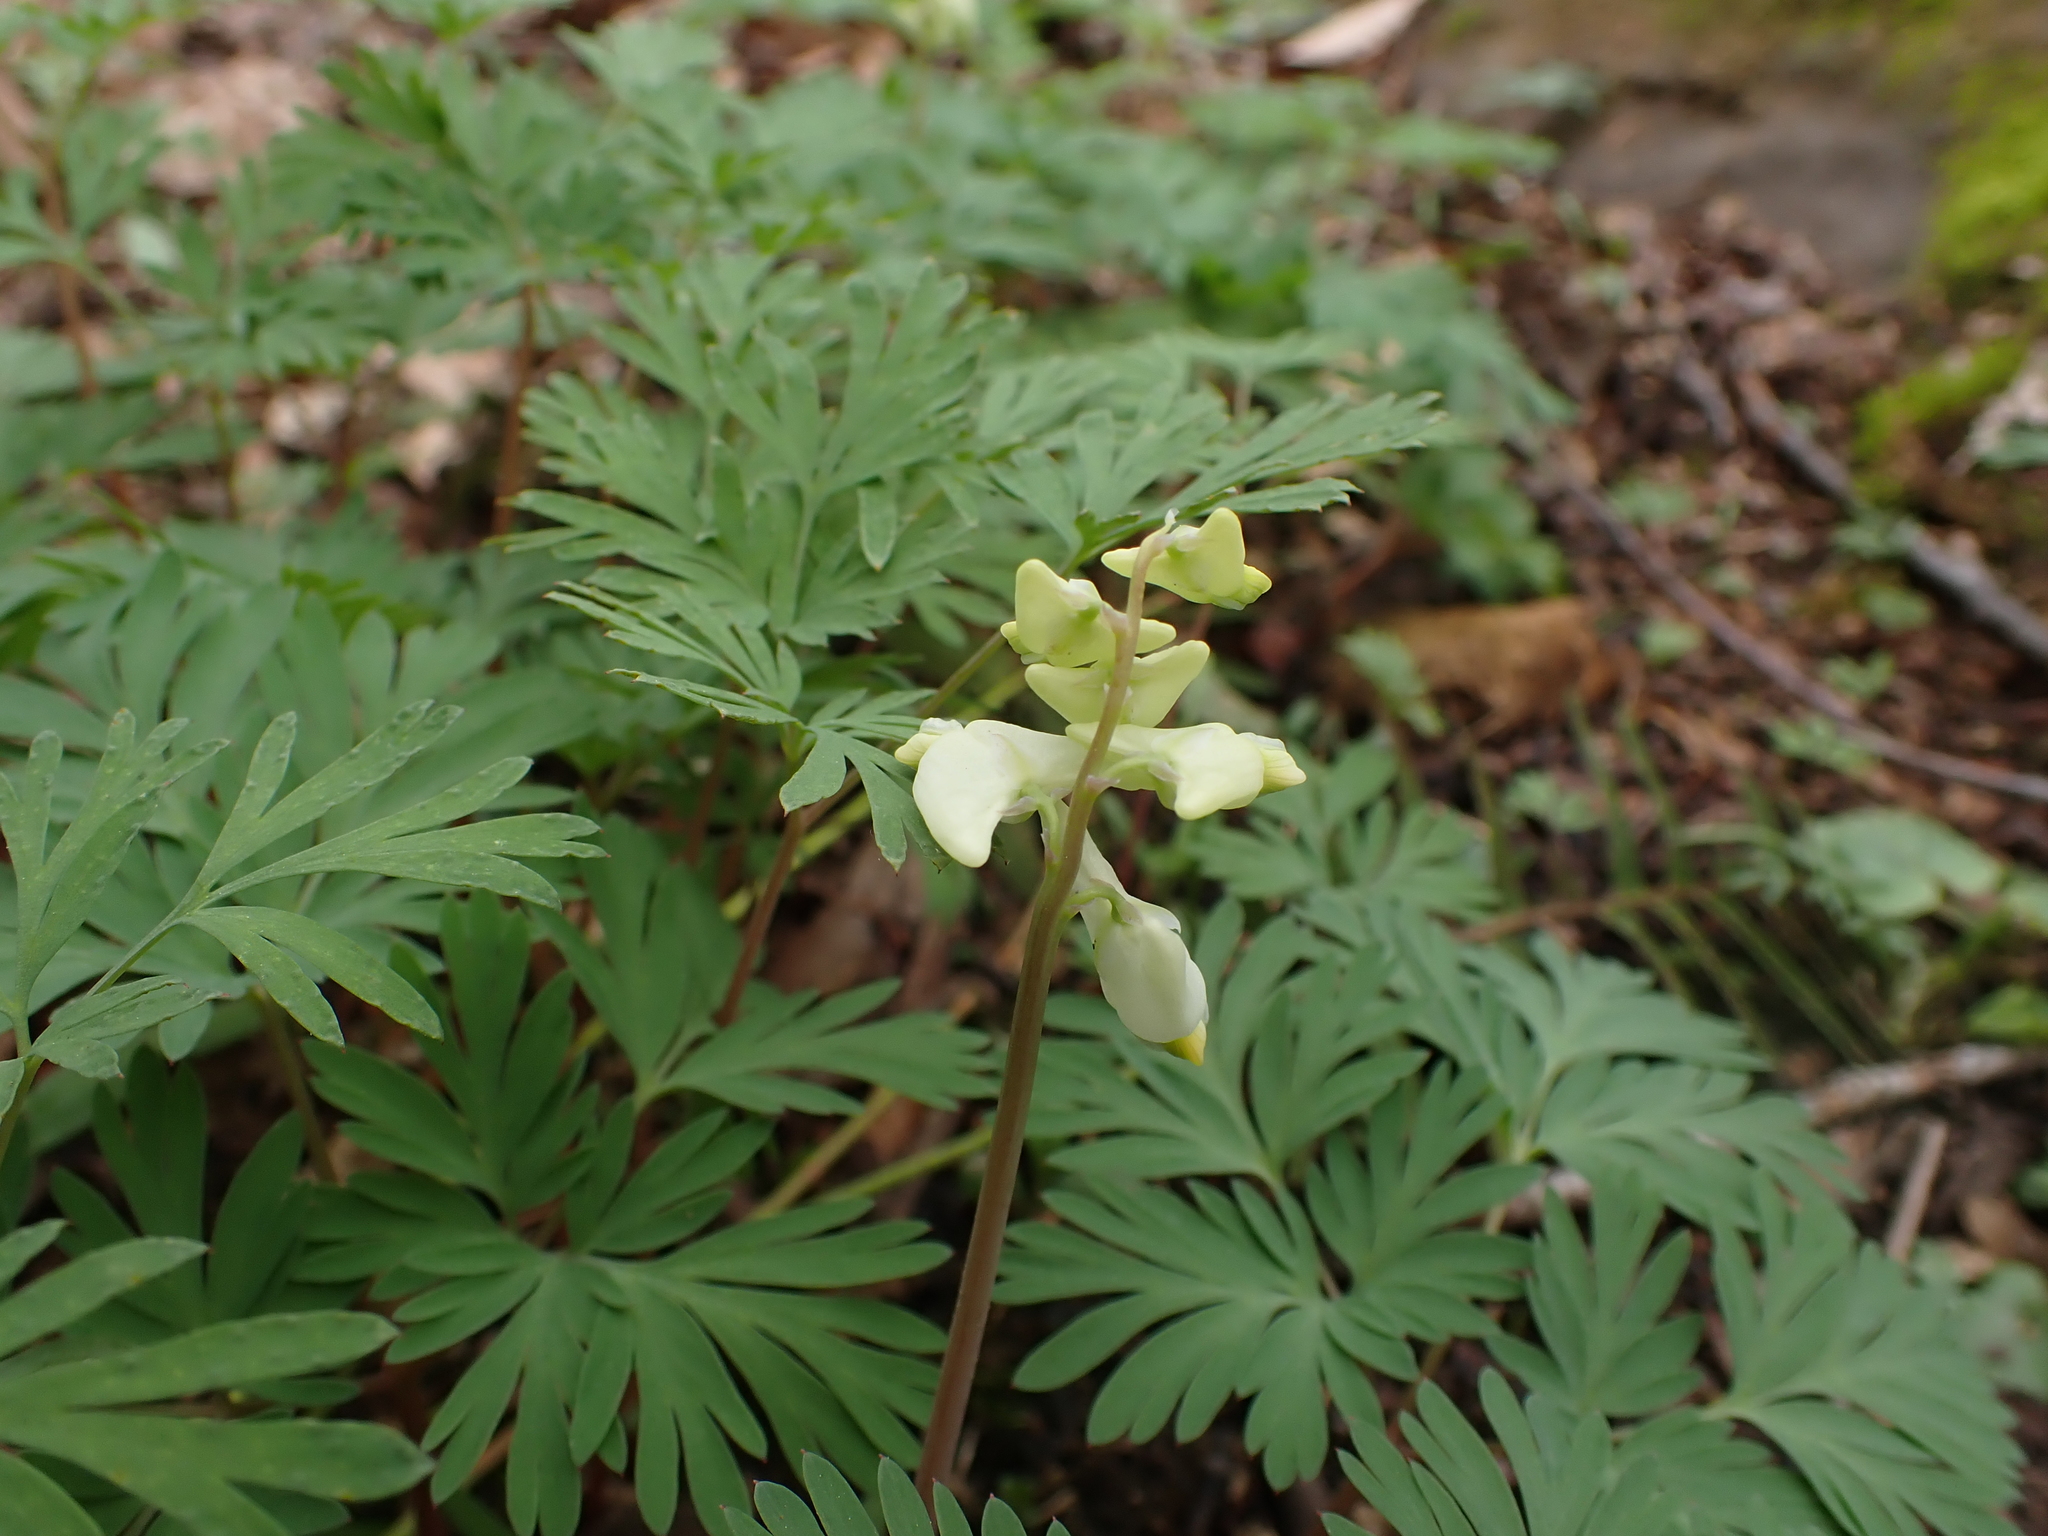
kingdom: Plantae
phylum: Tracheophyta
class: Magnoliopsida
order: Ranunculales
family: Papaveraceae
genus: Dicentra
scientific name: Dicentra cucullaria
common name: Dutchman's breeches
